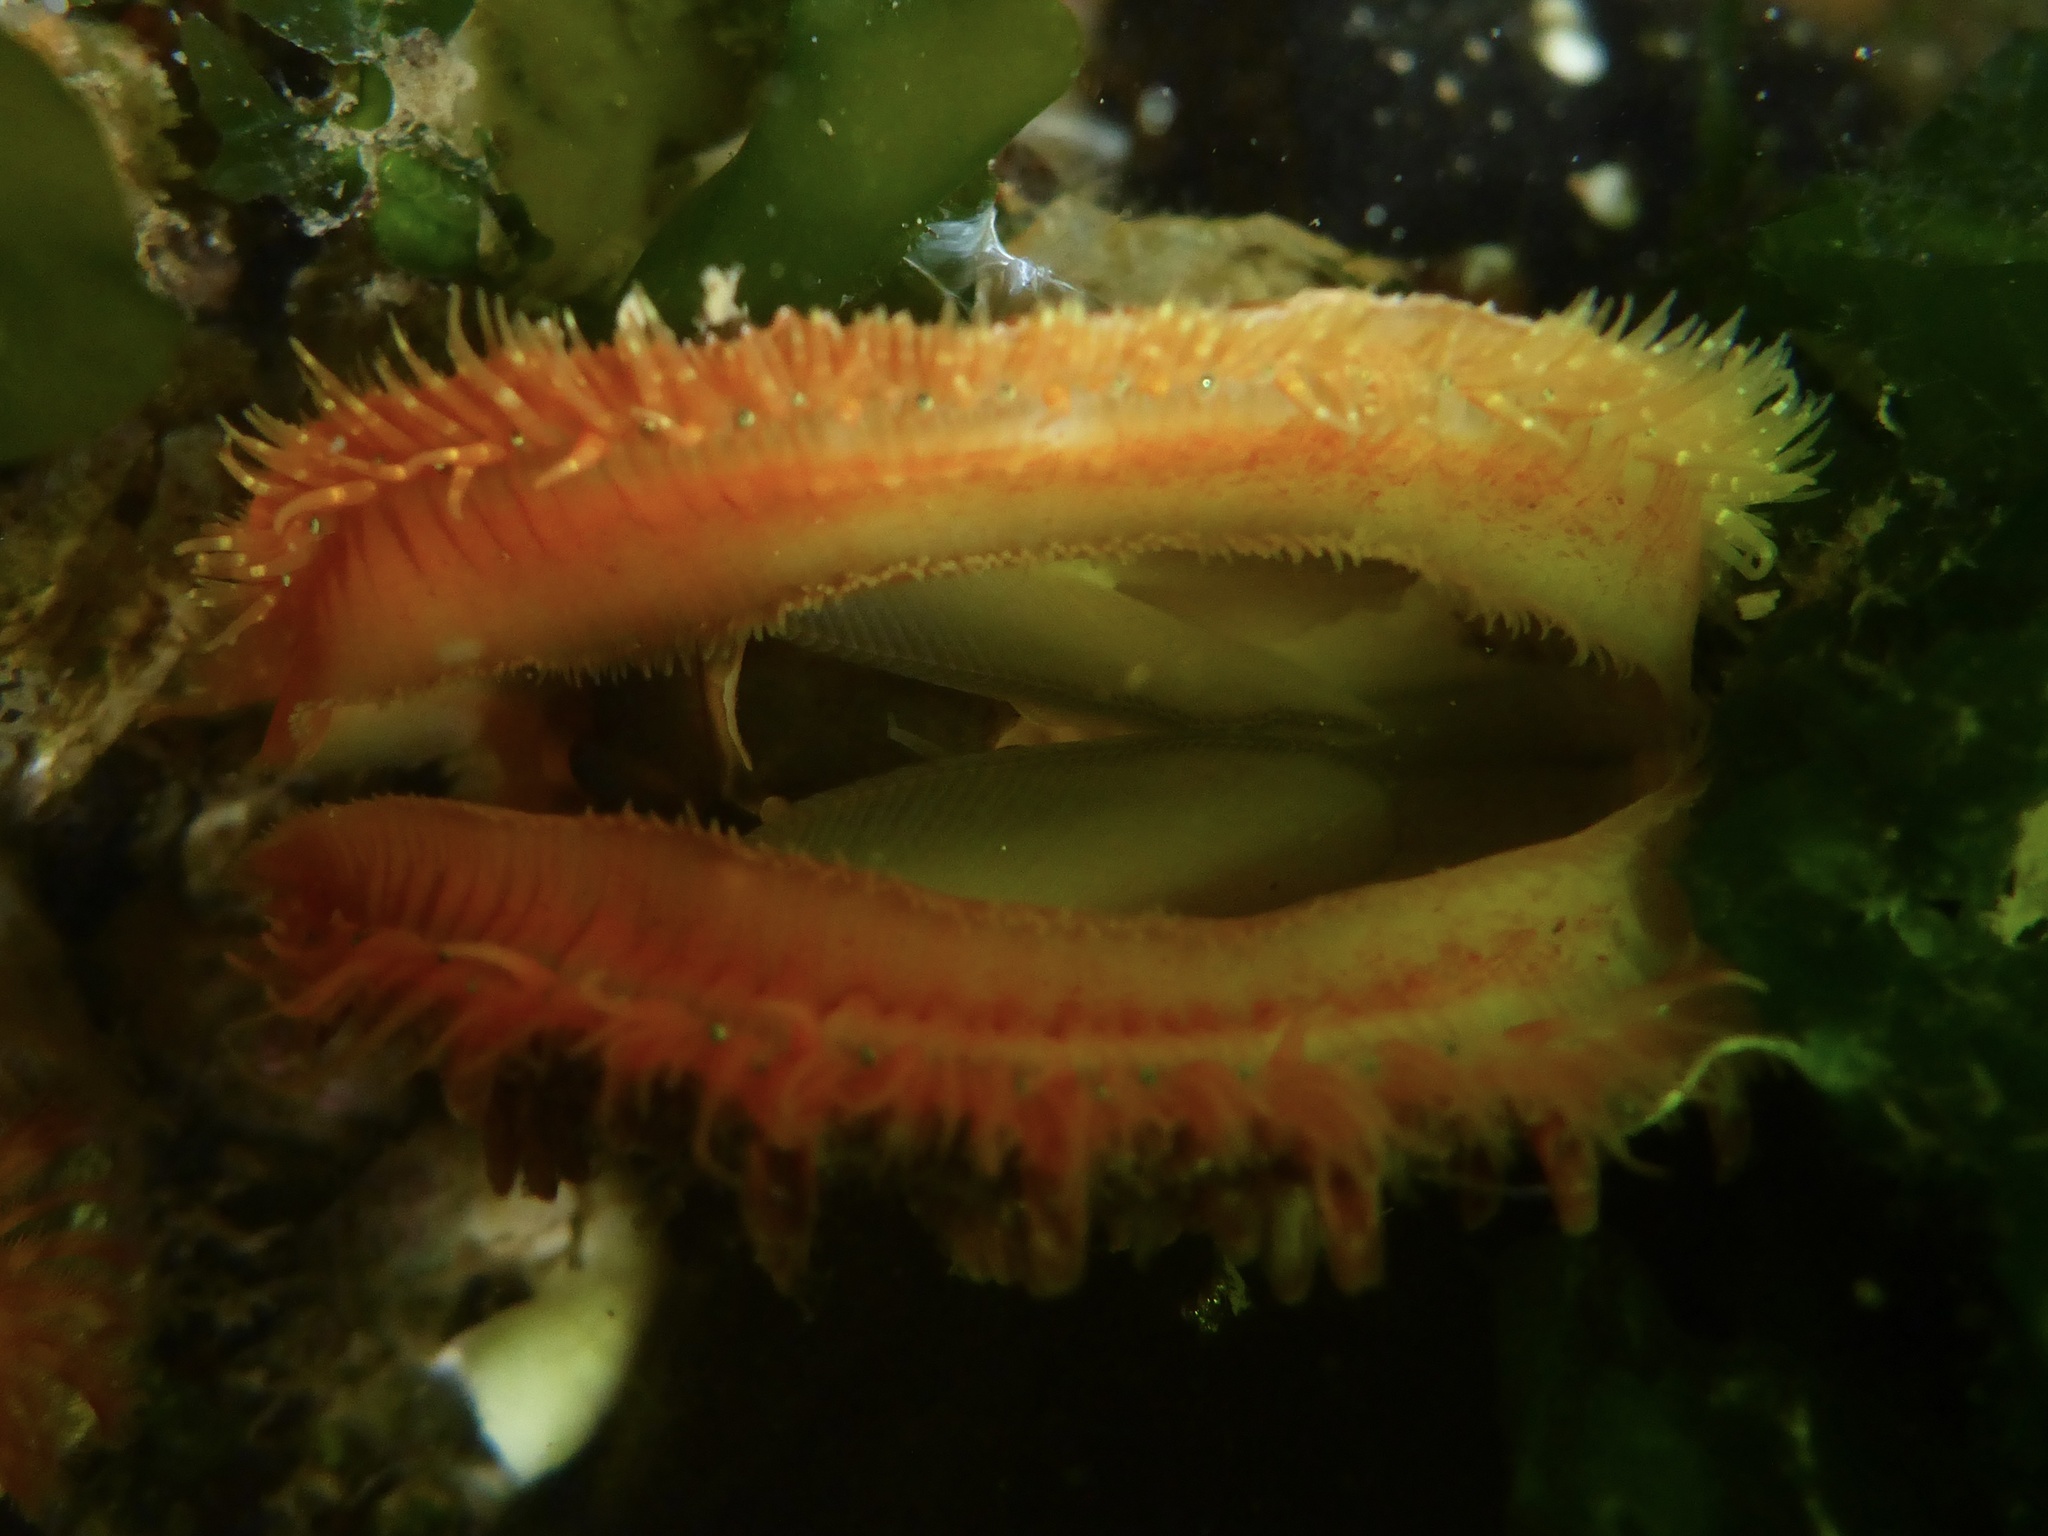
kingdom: Animalia
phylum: Mollusca
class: Bivalvia
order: Pectinida
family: Pectinidae
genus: Crassadoma
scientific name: Crassadoma gigantea
